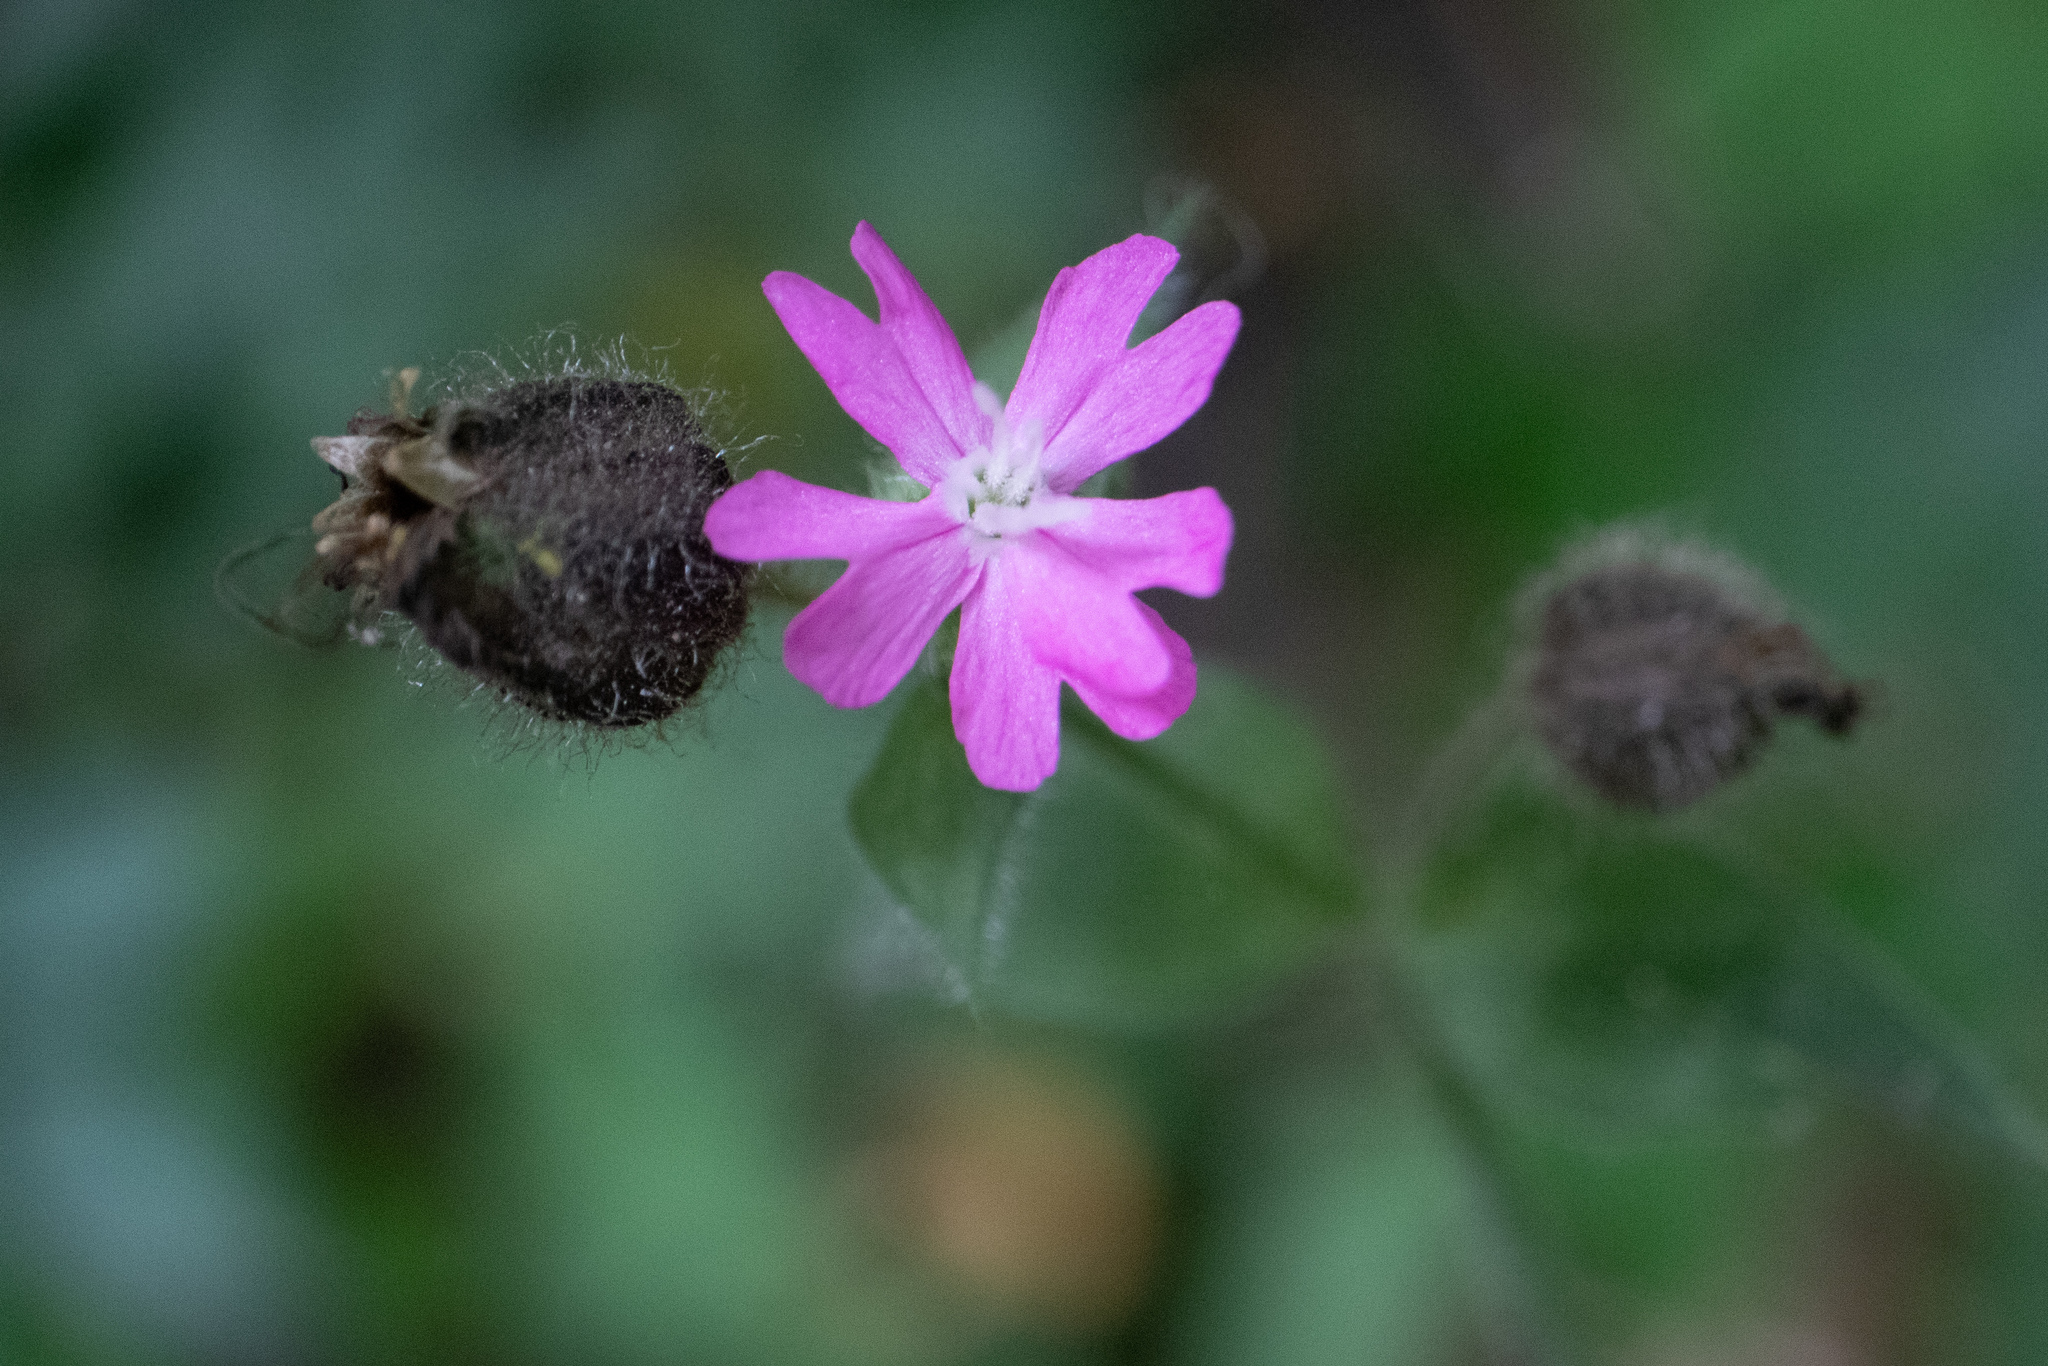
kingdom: Plantae
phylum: Tracheophyta
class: Magnoliopsida
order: Caryophyllales
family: Caryophyllaceae
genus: Silene
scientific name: Silene dioica
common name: Red campion
